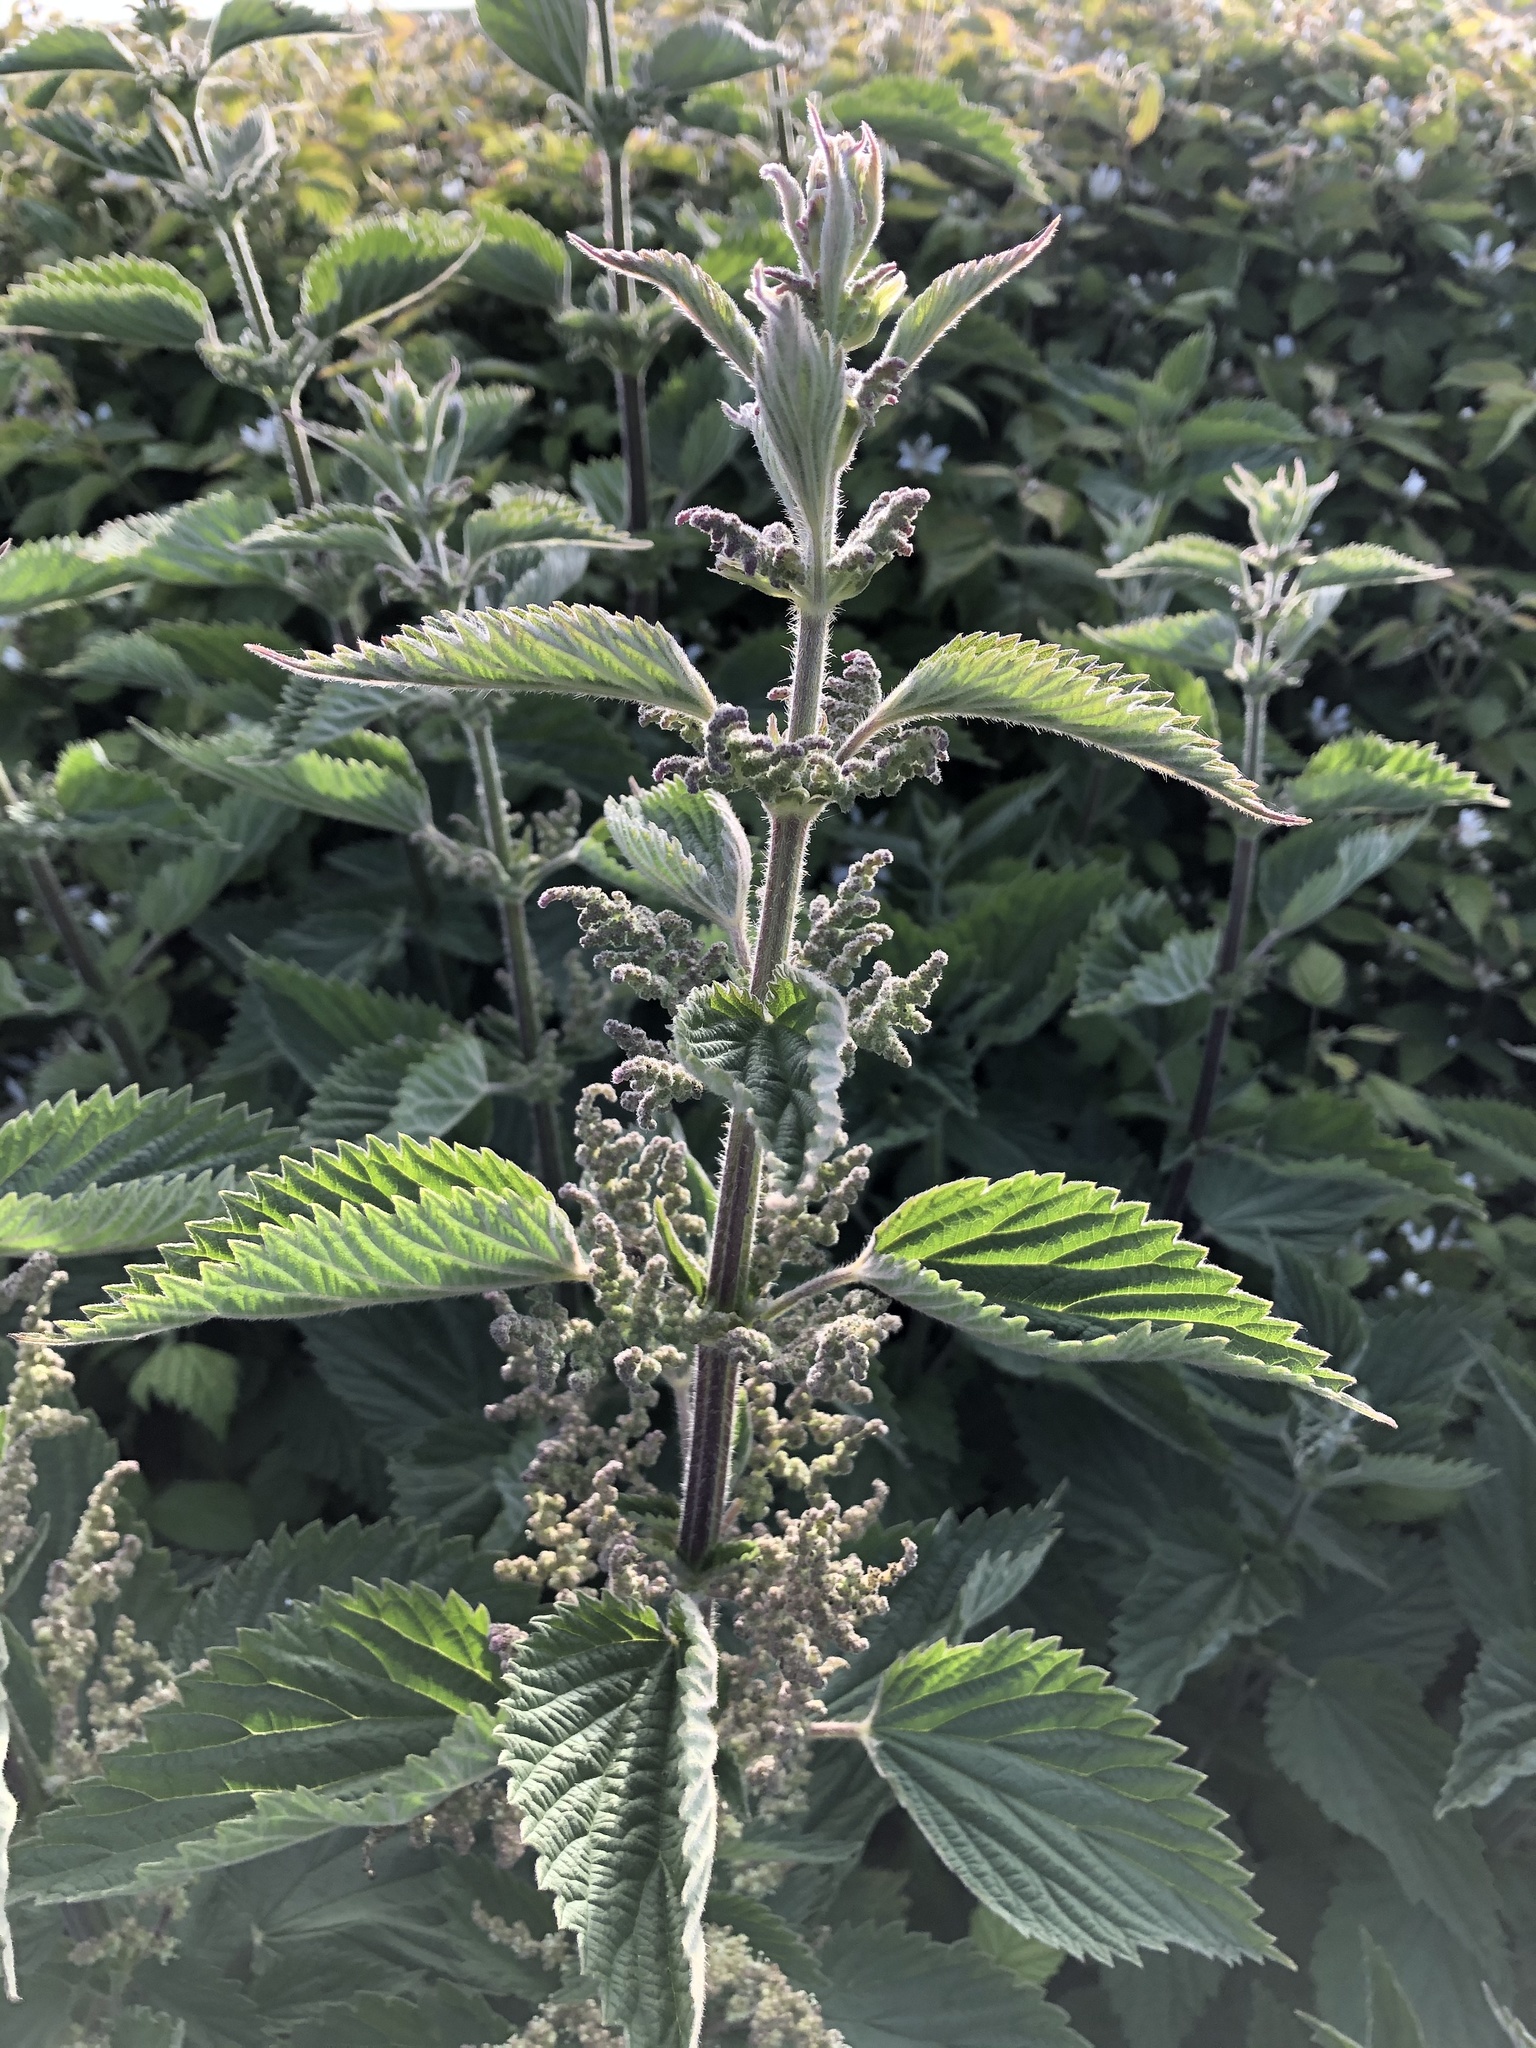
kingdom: Plantae
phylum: Tracheophyta
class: Magnoliopsida
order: Rosales
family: Urticaceae
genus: Urtica
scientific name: Urtica dioica
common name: Common nettle
